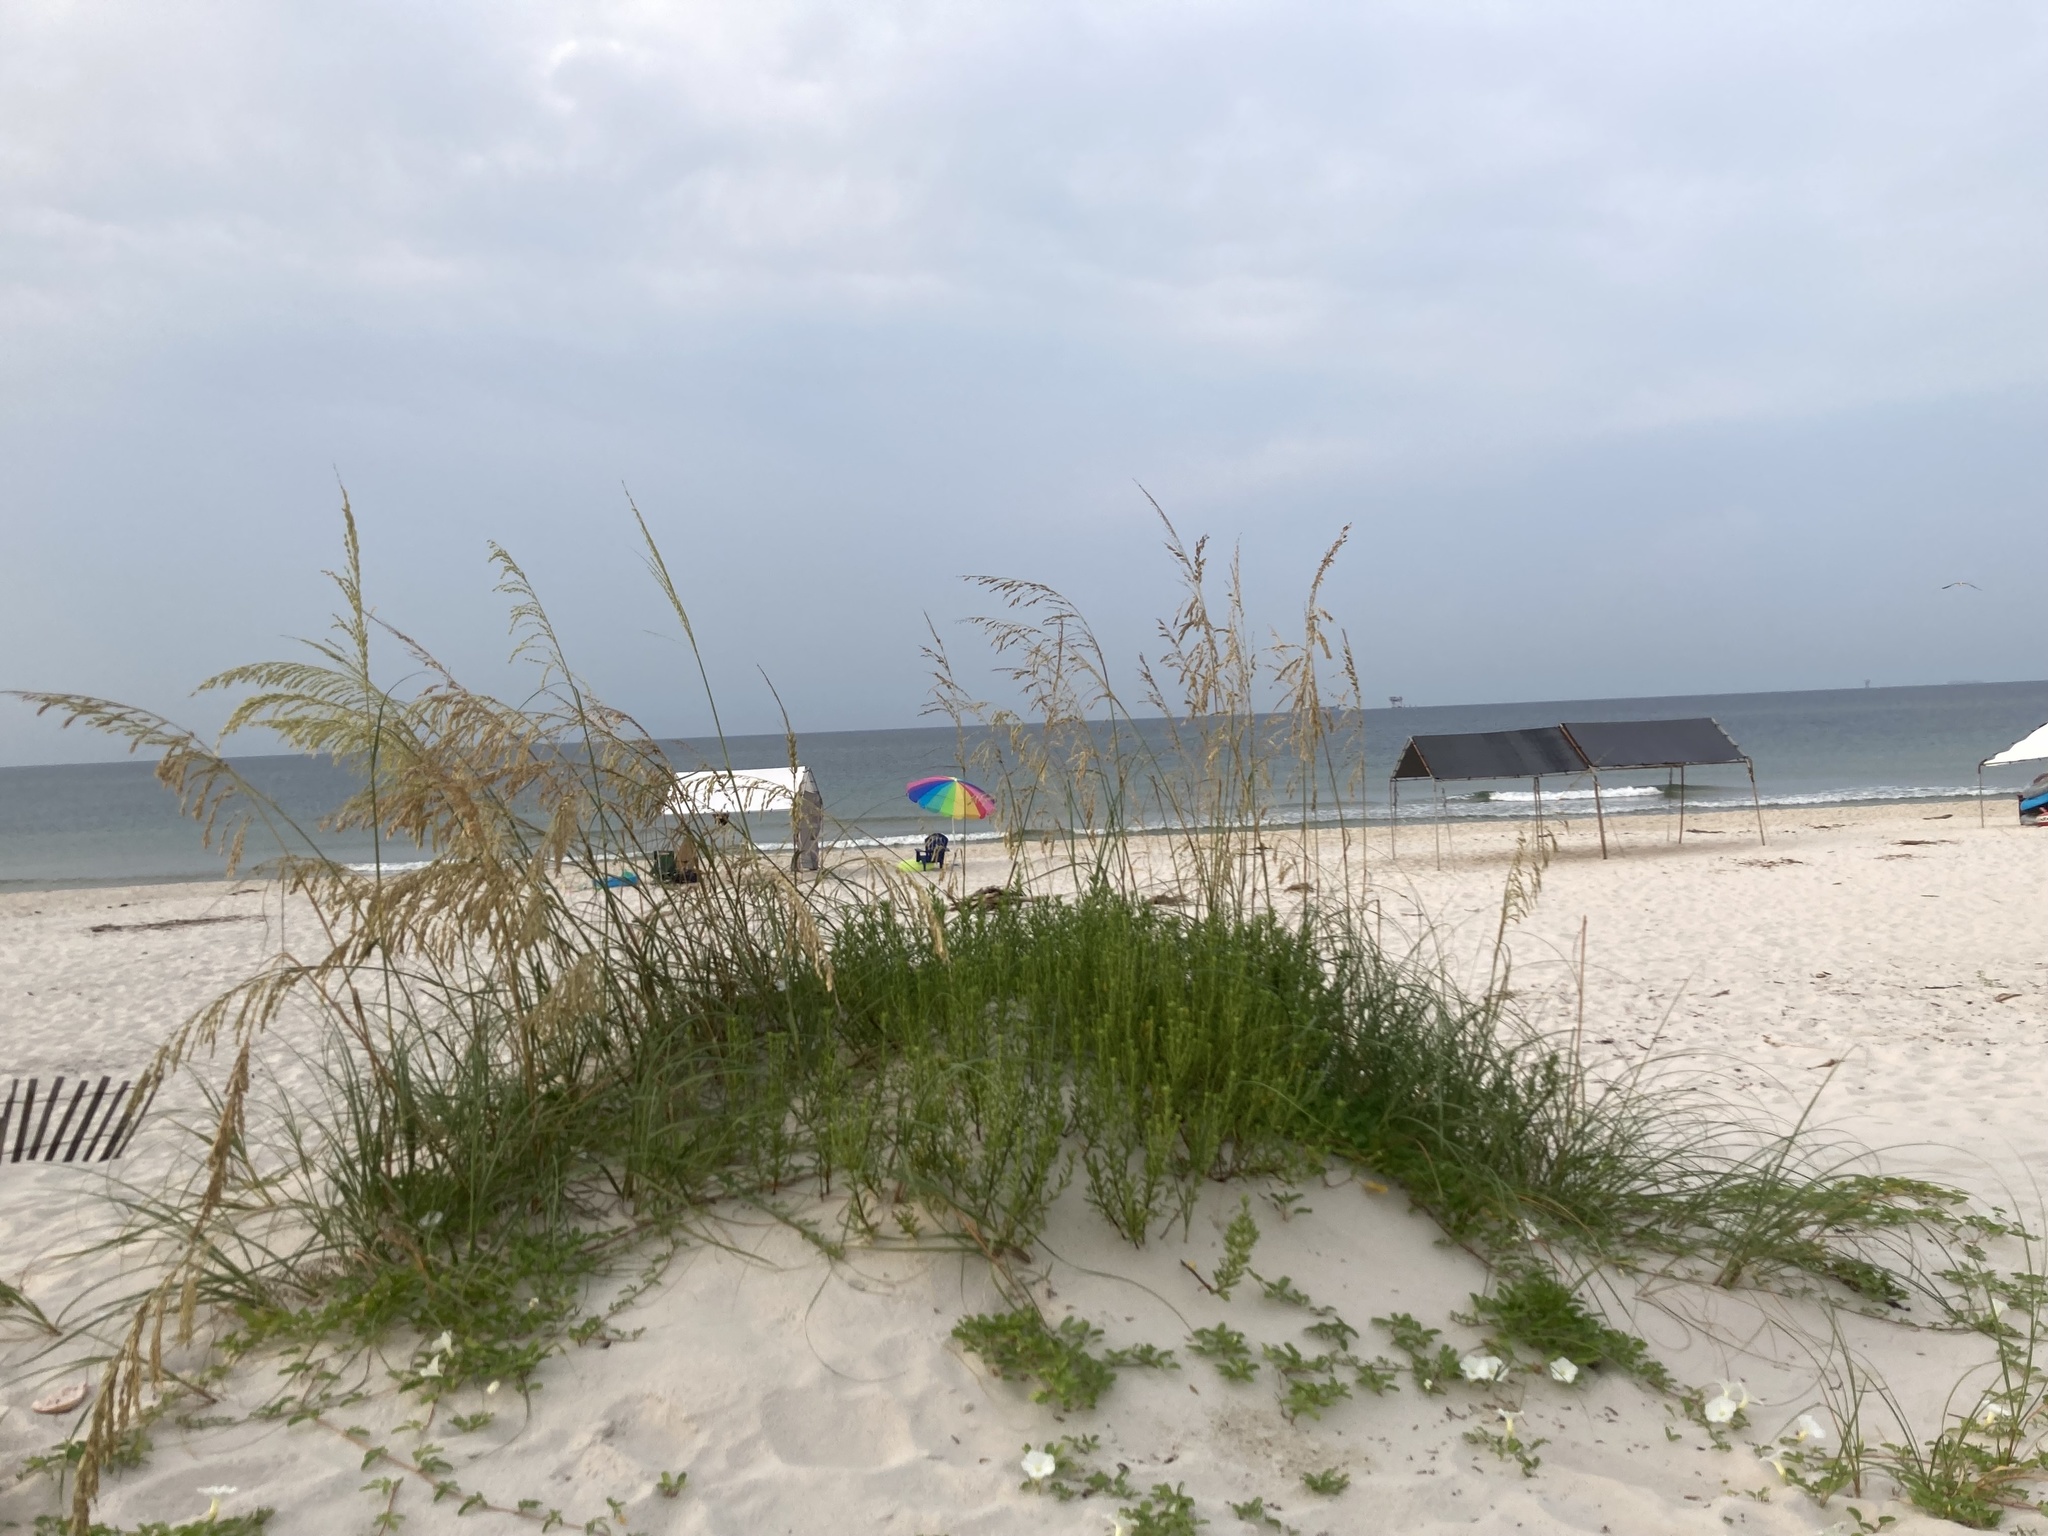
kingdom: Plantae
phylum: Tracheophyta
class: Liliopsida
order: Poales
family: Poaceae
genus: Uniola
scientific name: Uniola paniculata
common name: Seaside-oats
